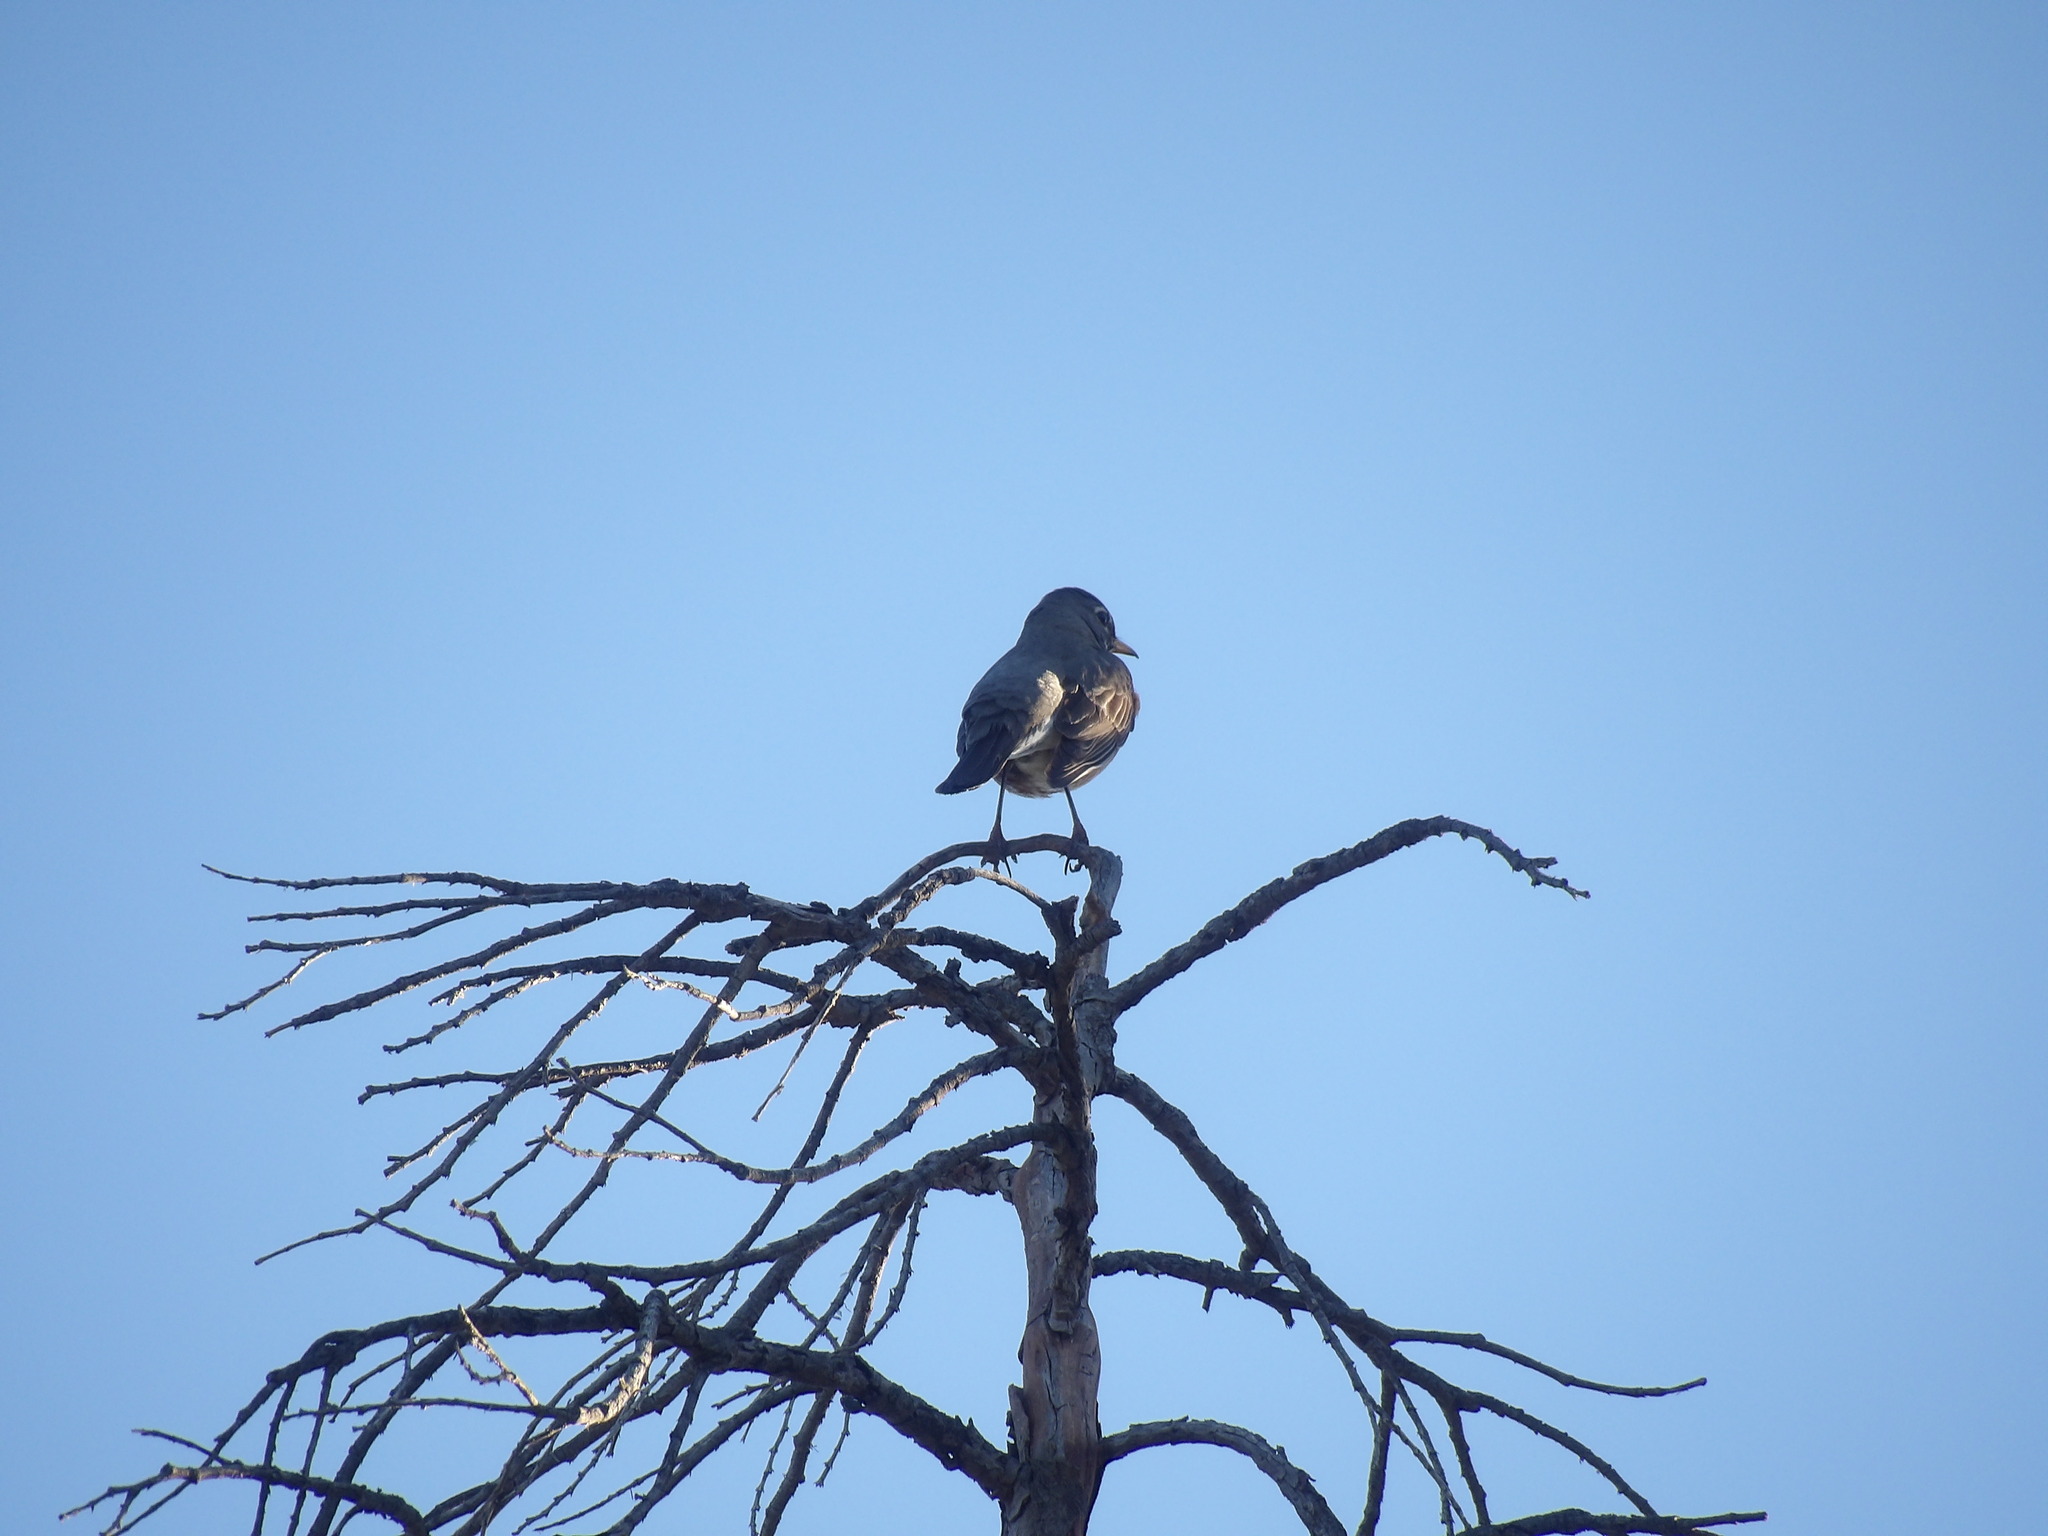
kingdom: Animalia
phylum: Chordata
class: Aves
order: Passeriformes
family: Turdidae
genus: Turdus
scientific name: Turdus migratorius
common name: American robin
